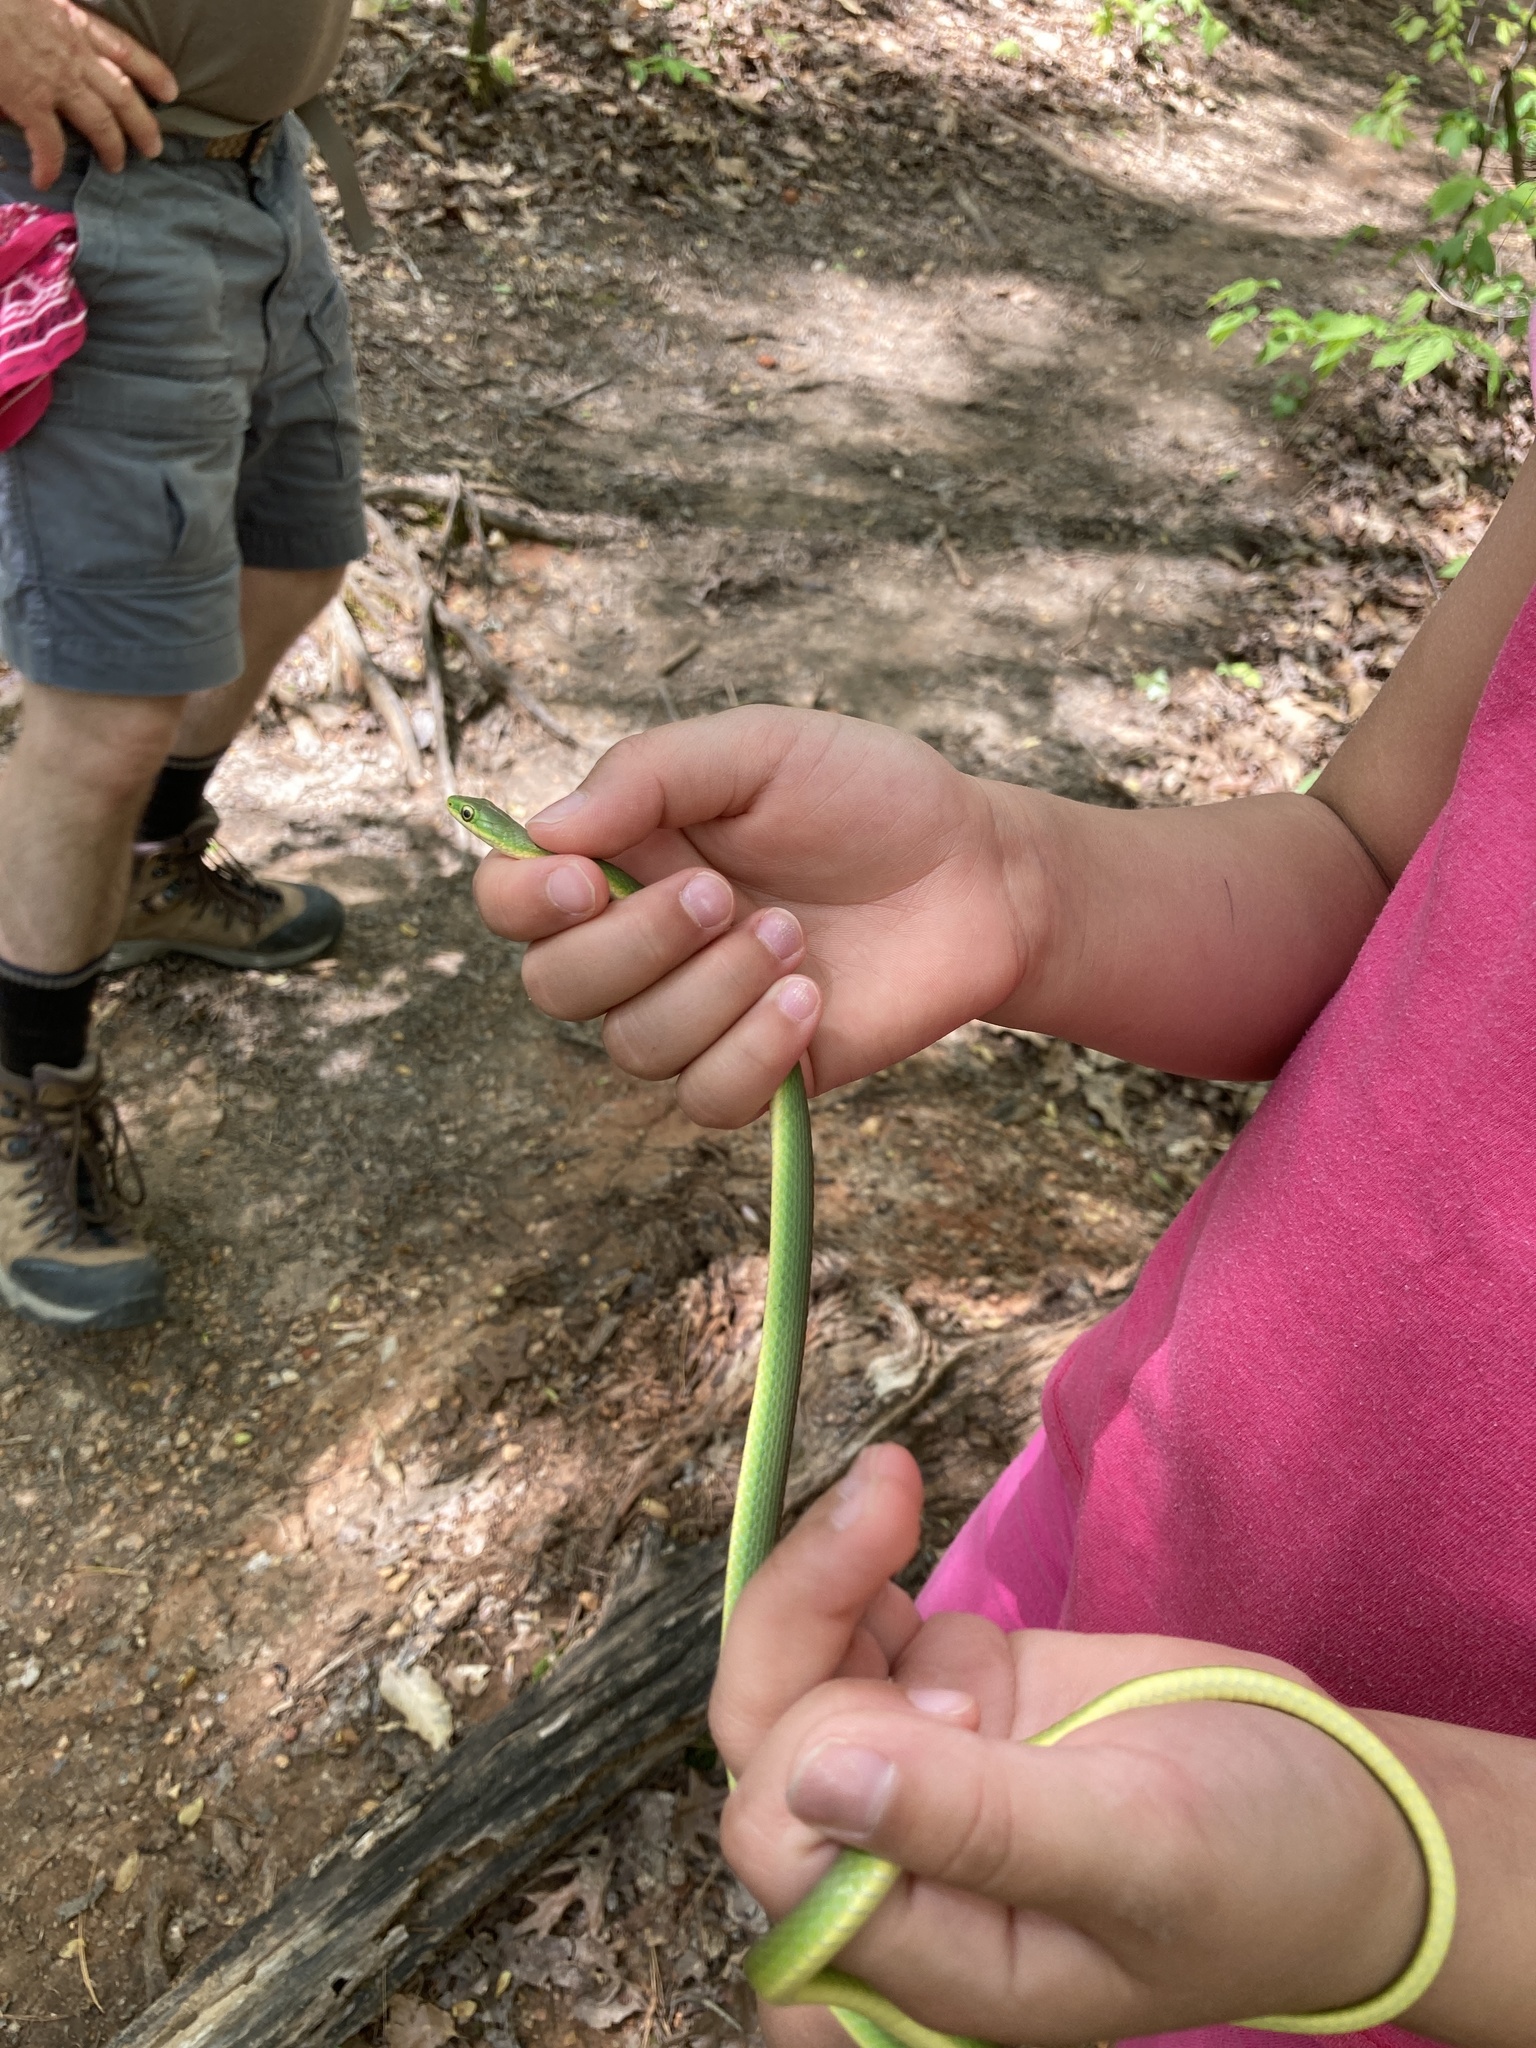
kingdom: Animalia
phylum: Chordata
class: Squamata
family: Colubridae
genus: Opheodrys
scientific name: Opheodrys aestivus
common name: Rough greensnake
